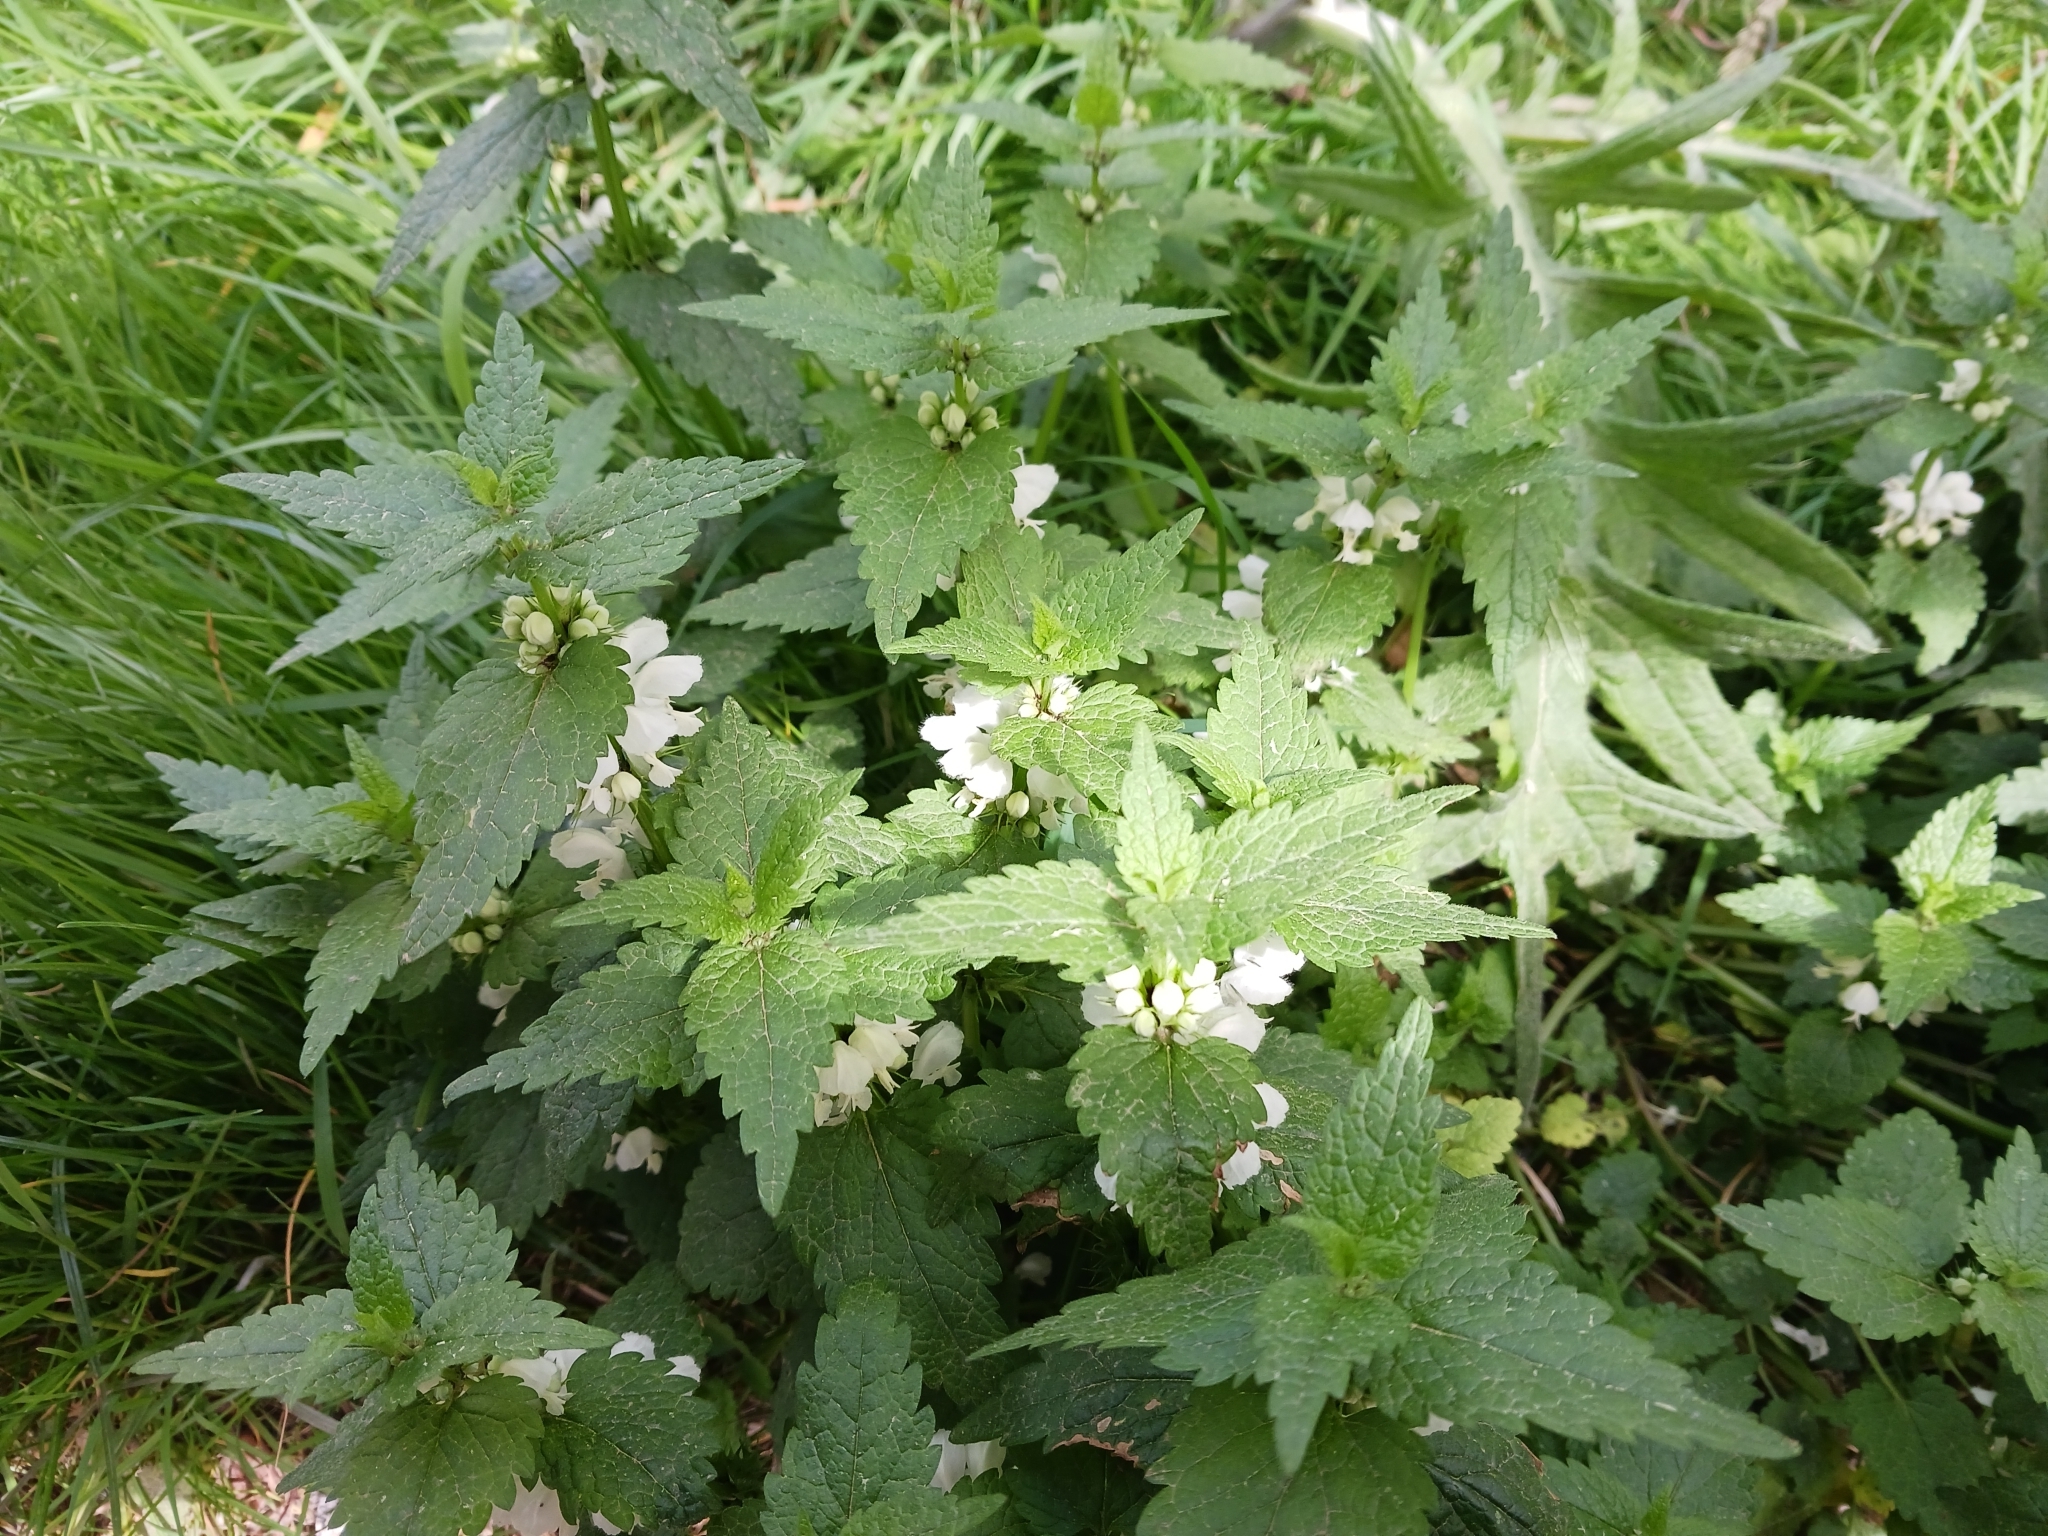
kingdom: Plantae
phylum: Tracheophyta
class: Magnoliopsida
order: Lamiales
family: Lamiaceae
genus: Lamium
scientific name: Lamium album
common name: White dead-nettle
